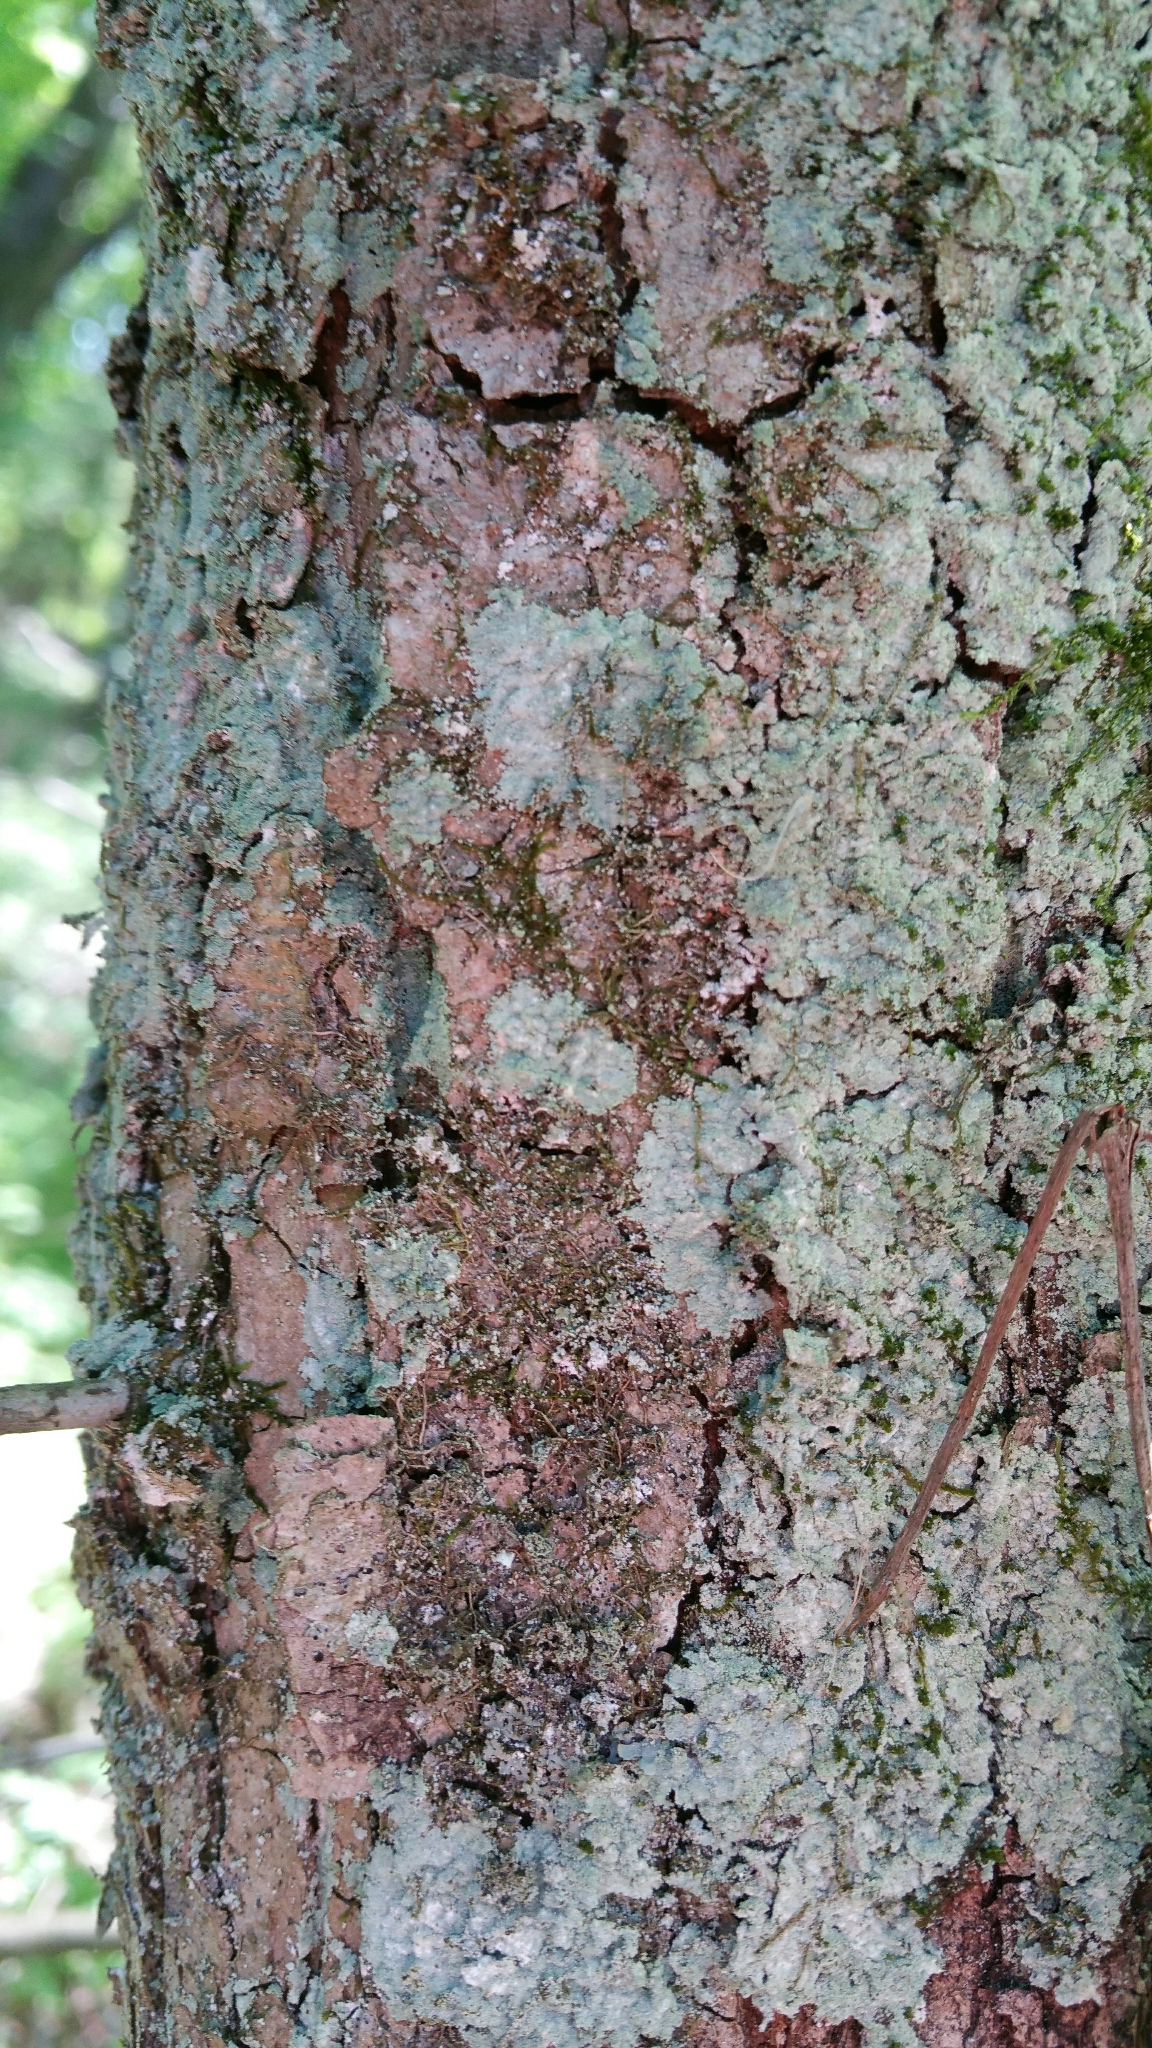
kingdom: Fungi
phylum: Ascomycota
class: Lecanoromycetes
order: Lecanorales
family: Stereocaulaceae
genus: Lepraria
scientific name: Lepraria lobificans
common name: Fluffy dust lichen
